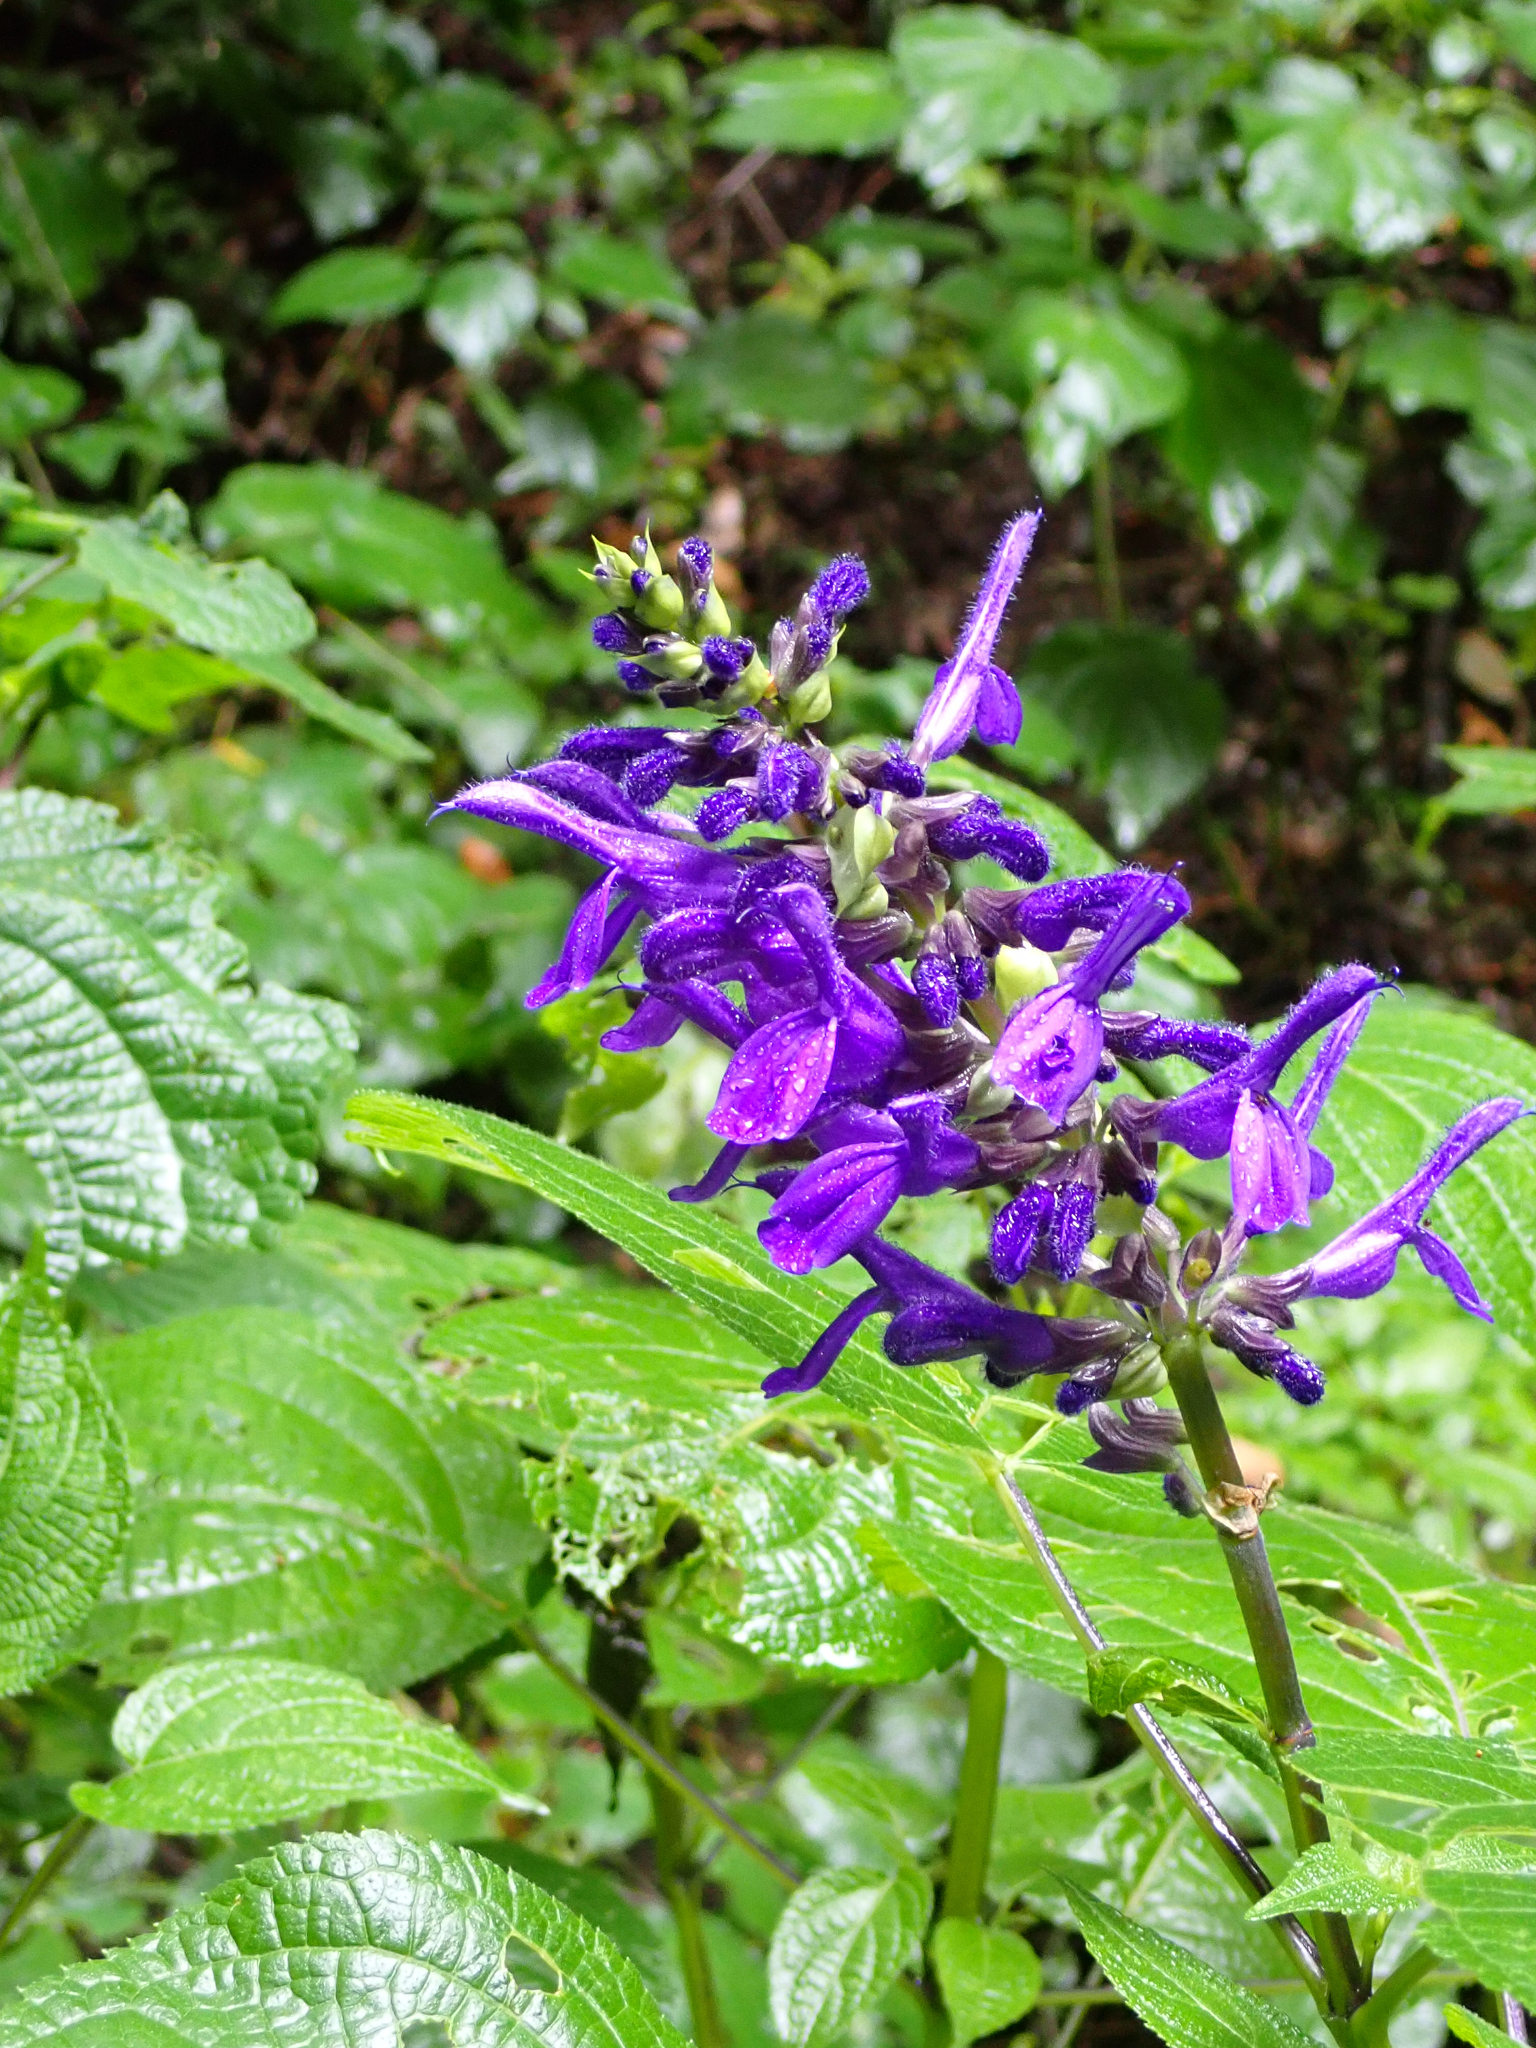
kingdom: Plantae
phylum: Tracheophyta
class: Magnoliopsida
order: Lamiales
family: Lamiaceae
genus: Salvia
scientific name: Salvia recurva
